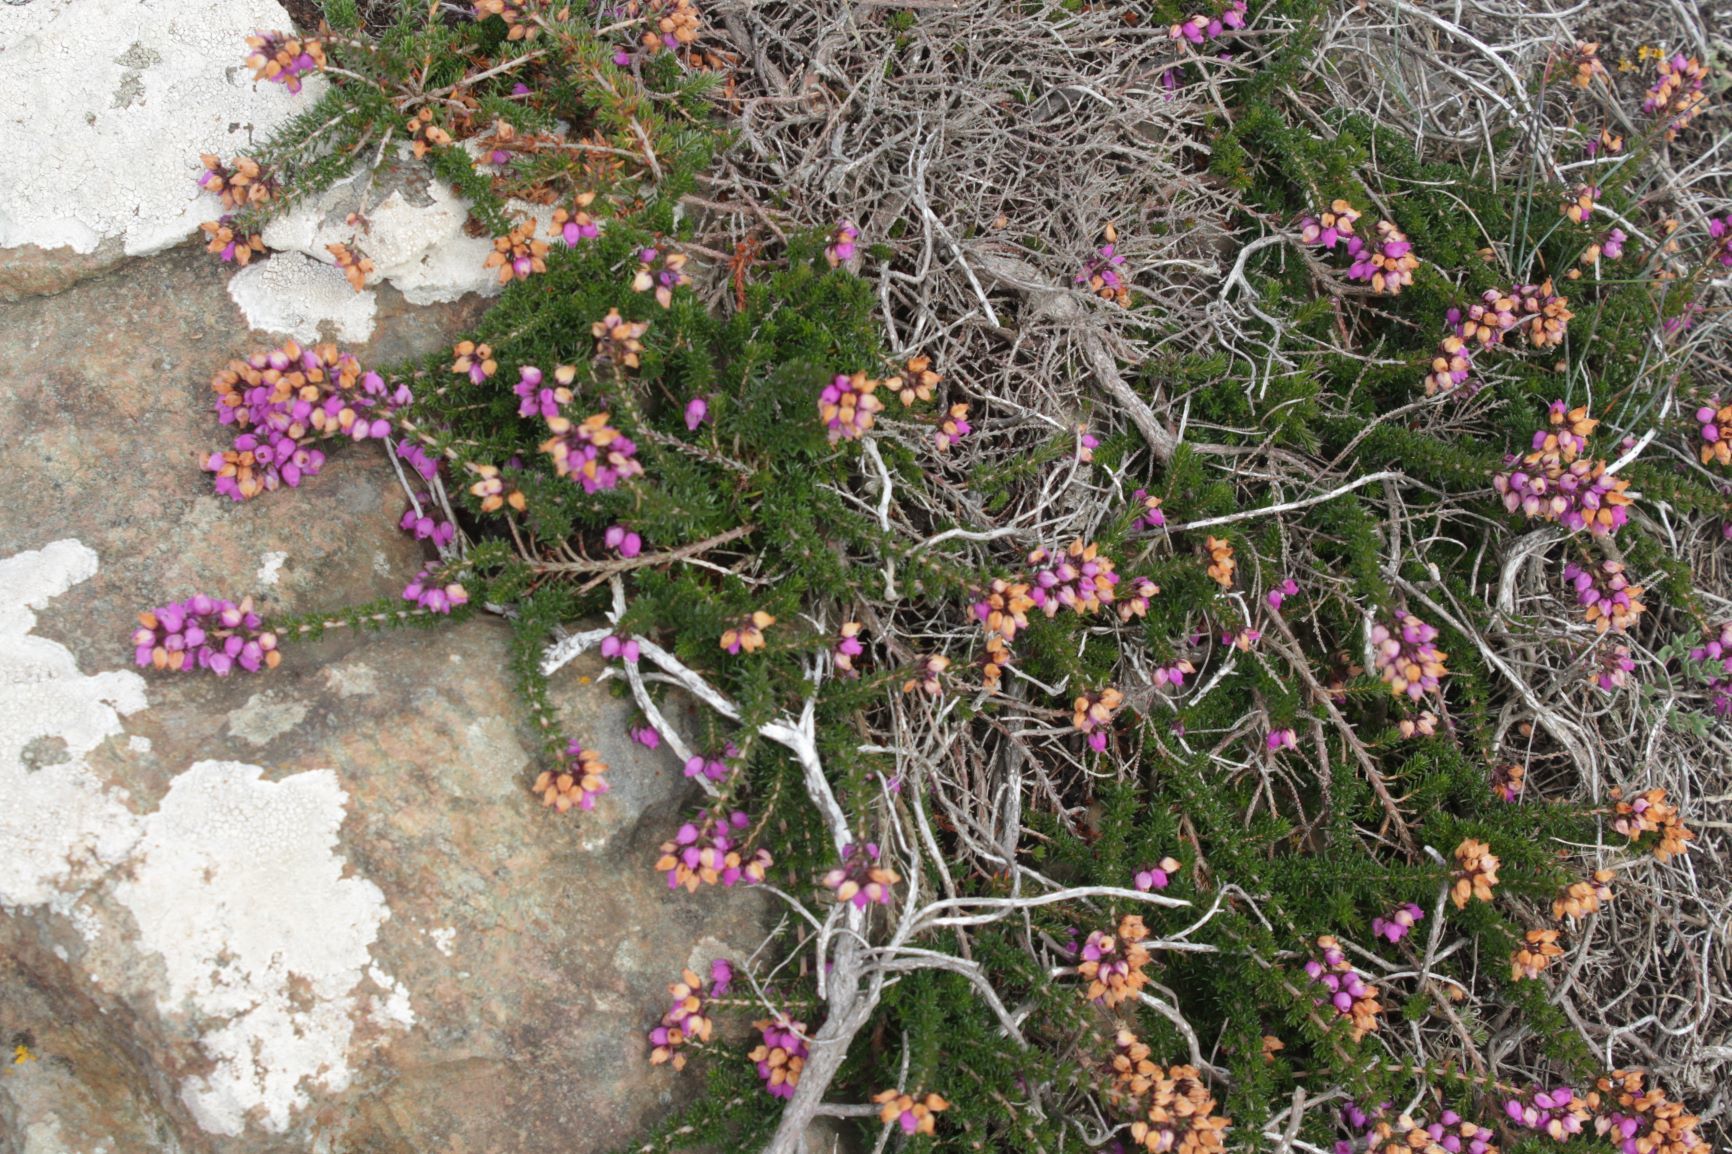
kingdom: Plantae
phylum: Tracheophyta
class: Magnoliopsida
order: Ericales
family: Ericaceae
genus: Erica
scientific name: Erica cinerea
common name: Bell heather
